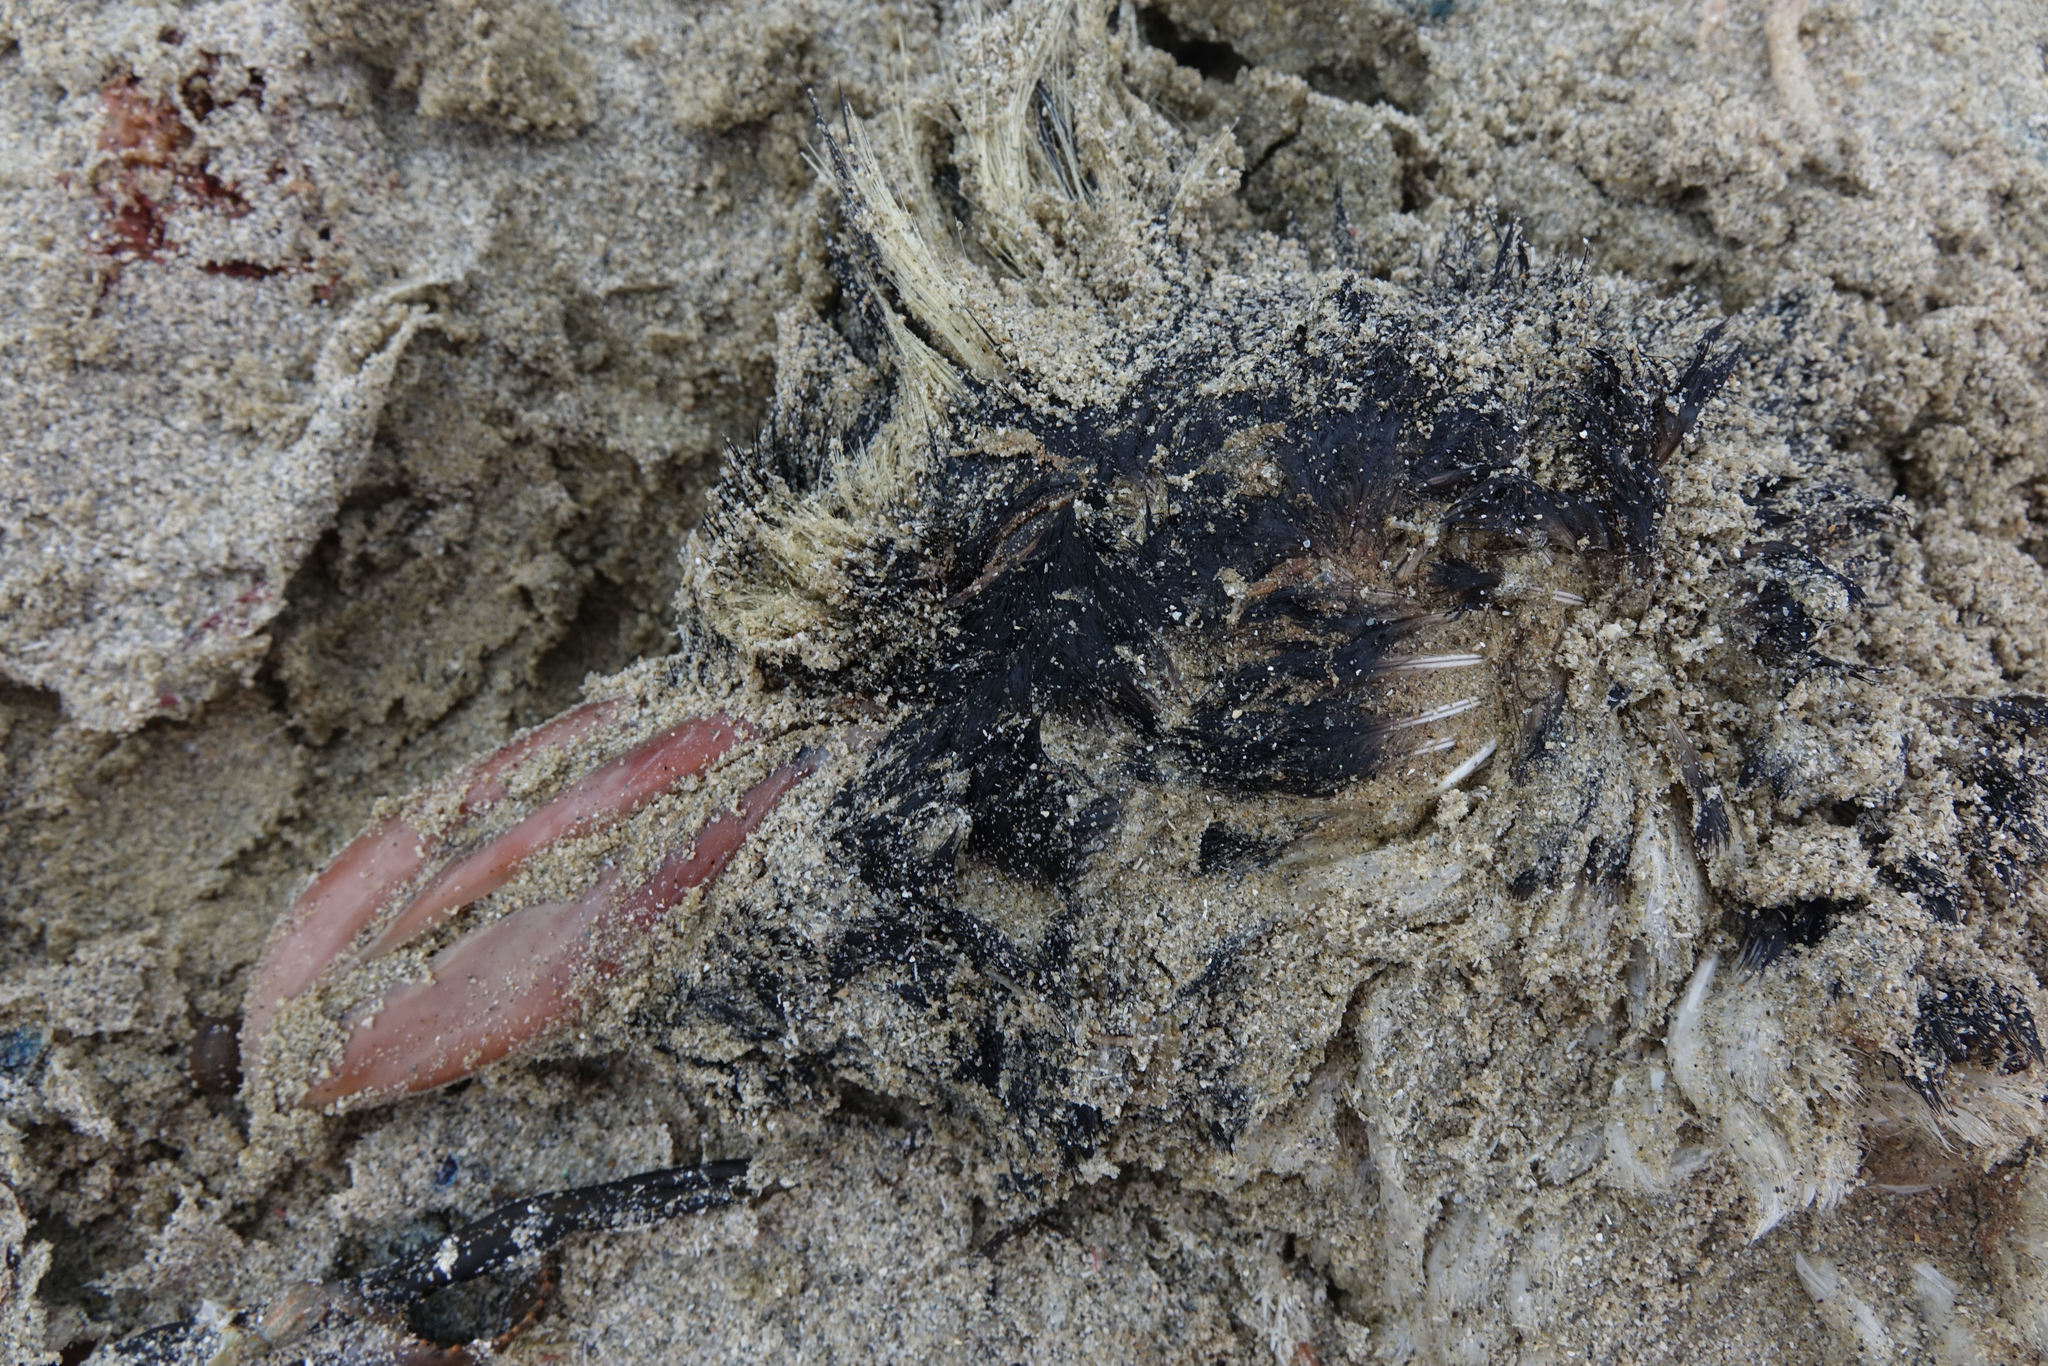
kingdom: Animalia
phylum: Chordata
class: Aves
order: Sphenisciformes
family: Spheniscidae
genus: Eudyptes
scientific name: Eudyptes pachyrhynchus
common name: Fiordland penguin
